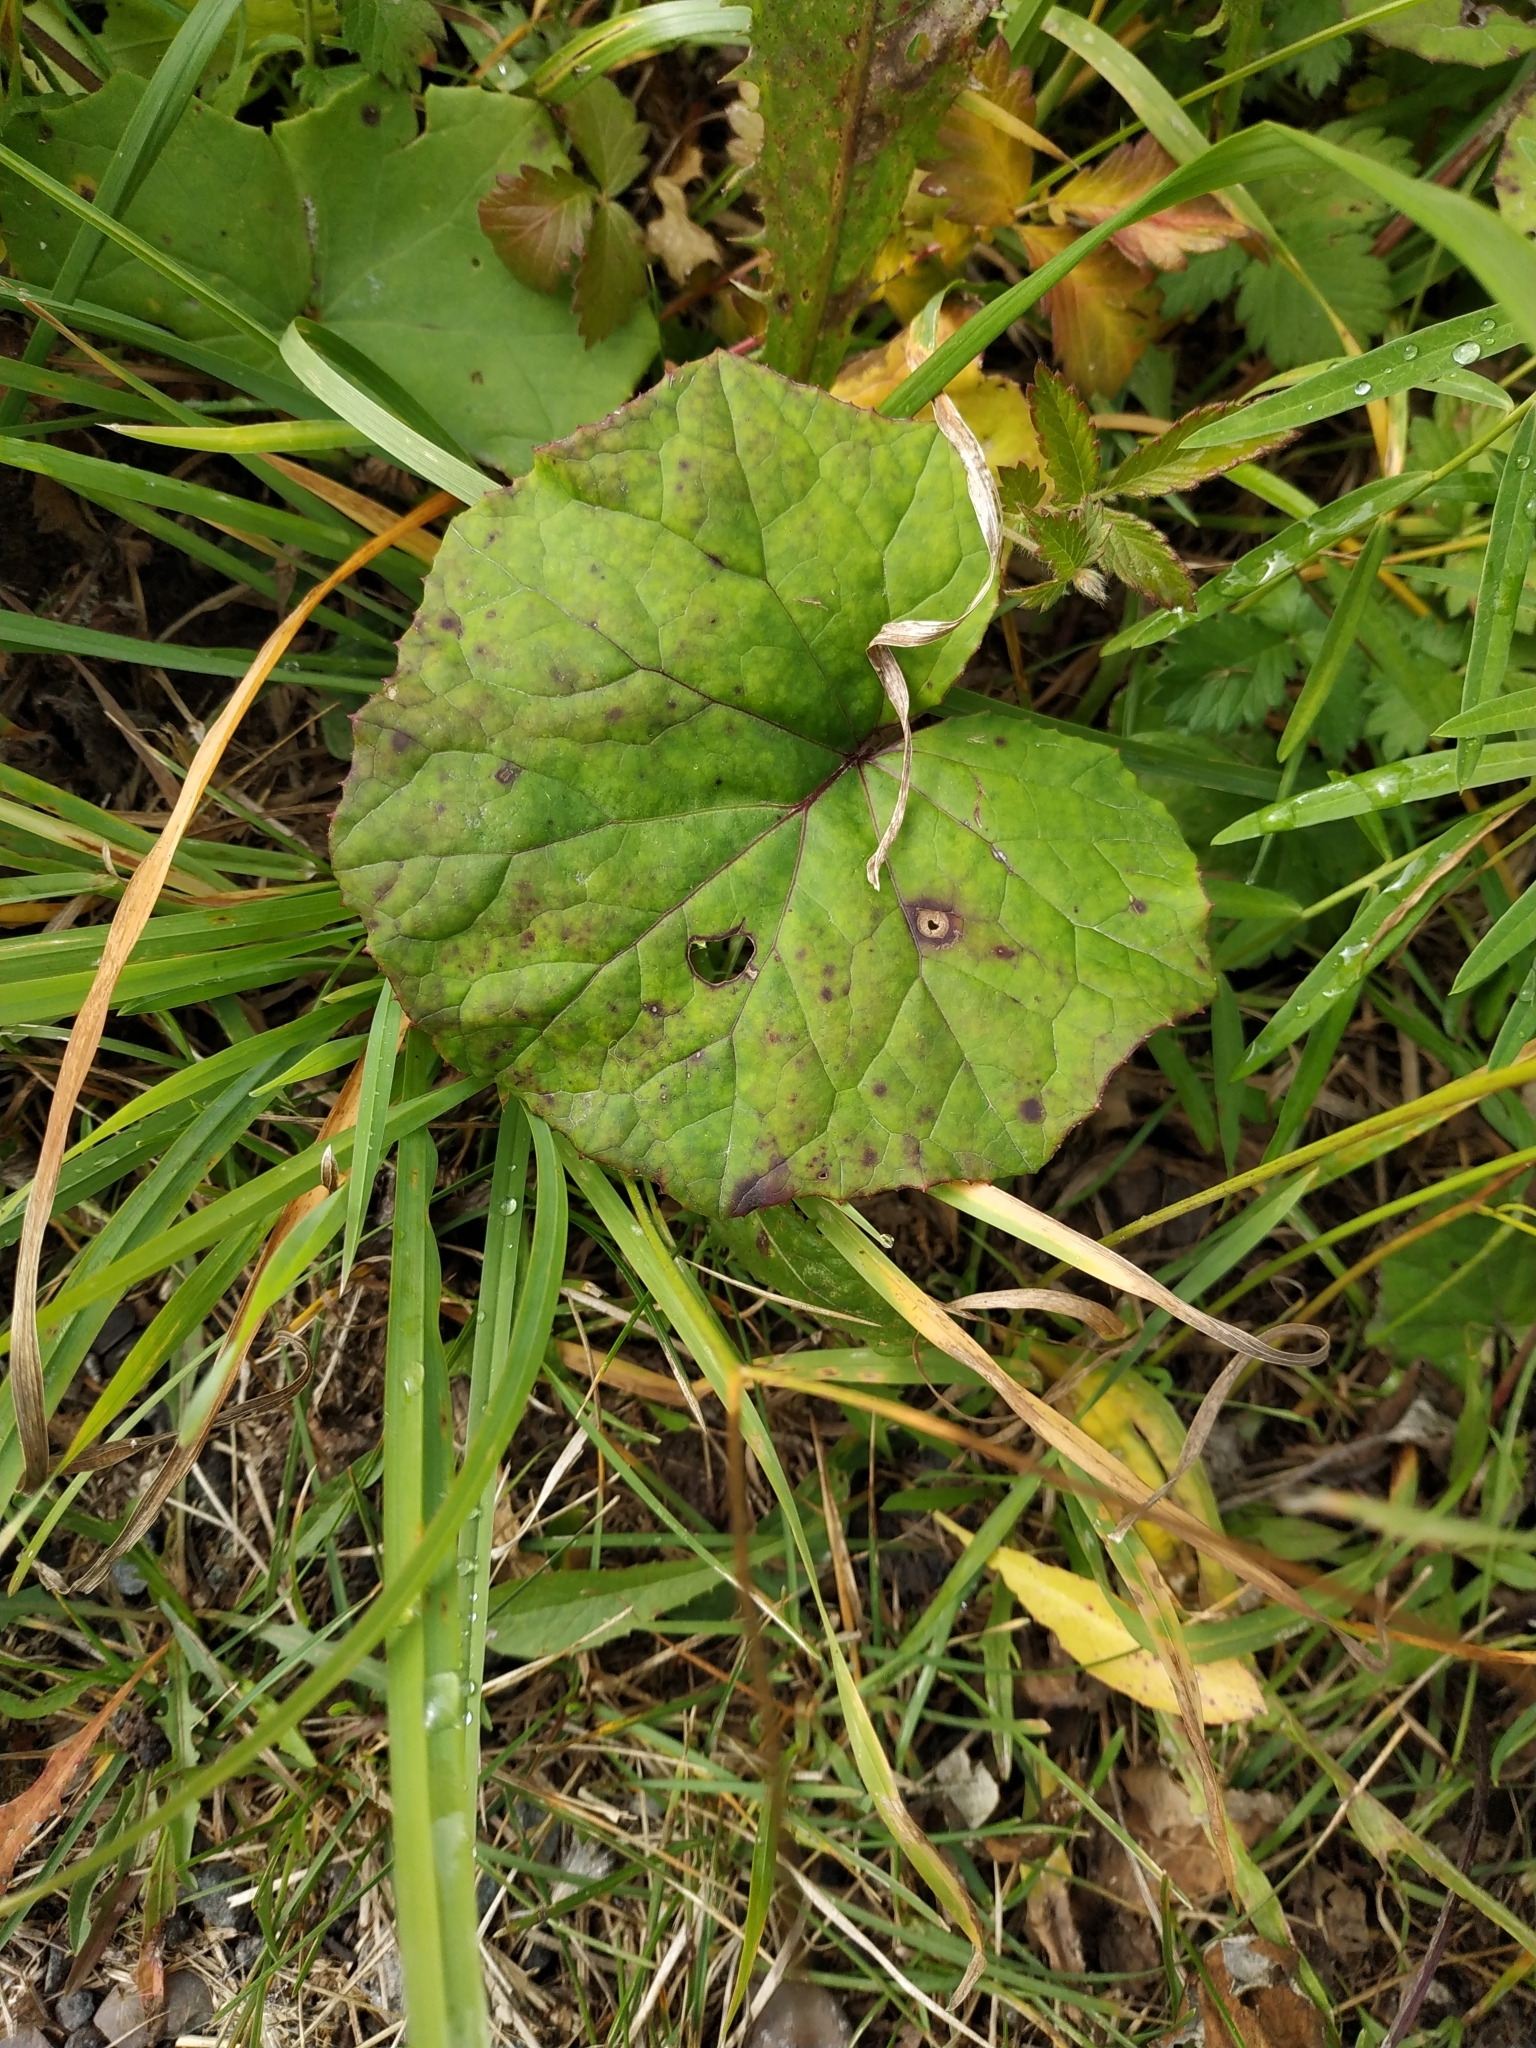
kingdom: Plantae
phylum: Tracheophyta
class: Magnoliopsida
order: Asterales
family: Asteraceae
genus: Tussilago
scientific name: Tussilago farfara
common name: Coltsfoot
